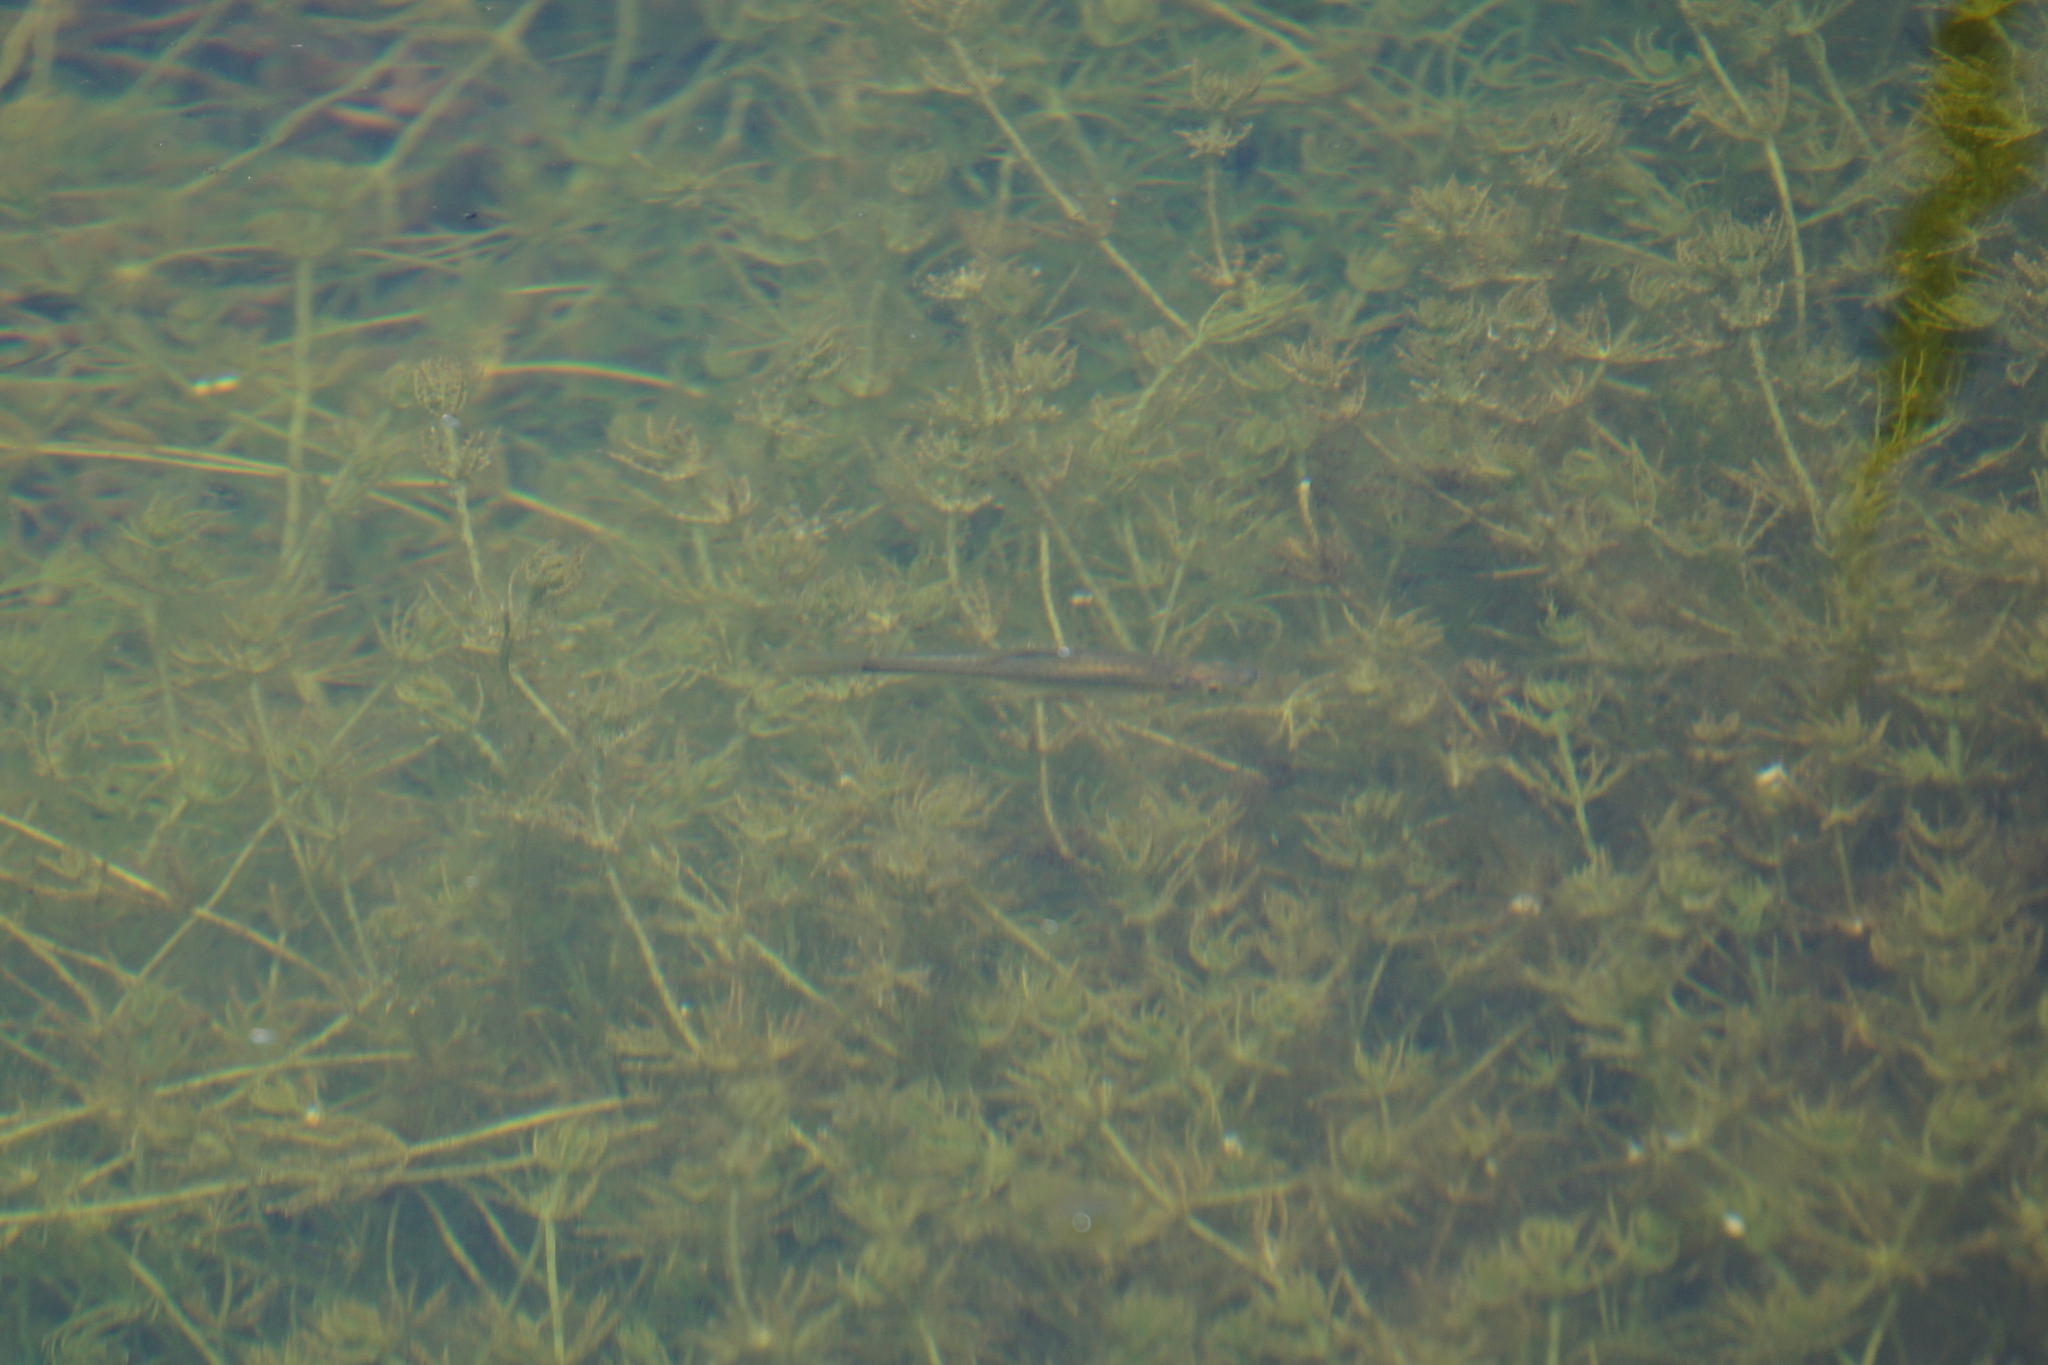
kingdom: Animalia
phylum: Chordata
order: Cypriniformes
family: Cyprinidae
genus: Pseudorasbora
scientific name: Pseudorasbora parva
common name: Topmouth gudgeon
